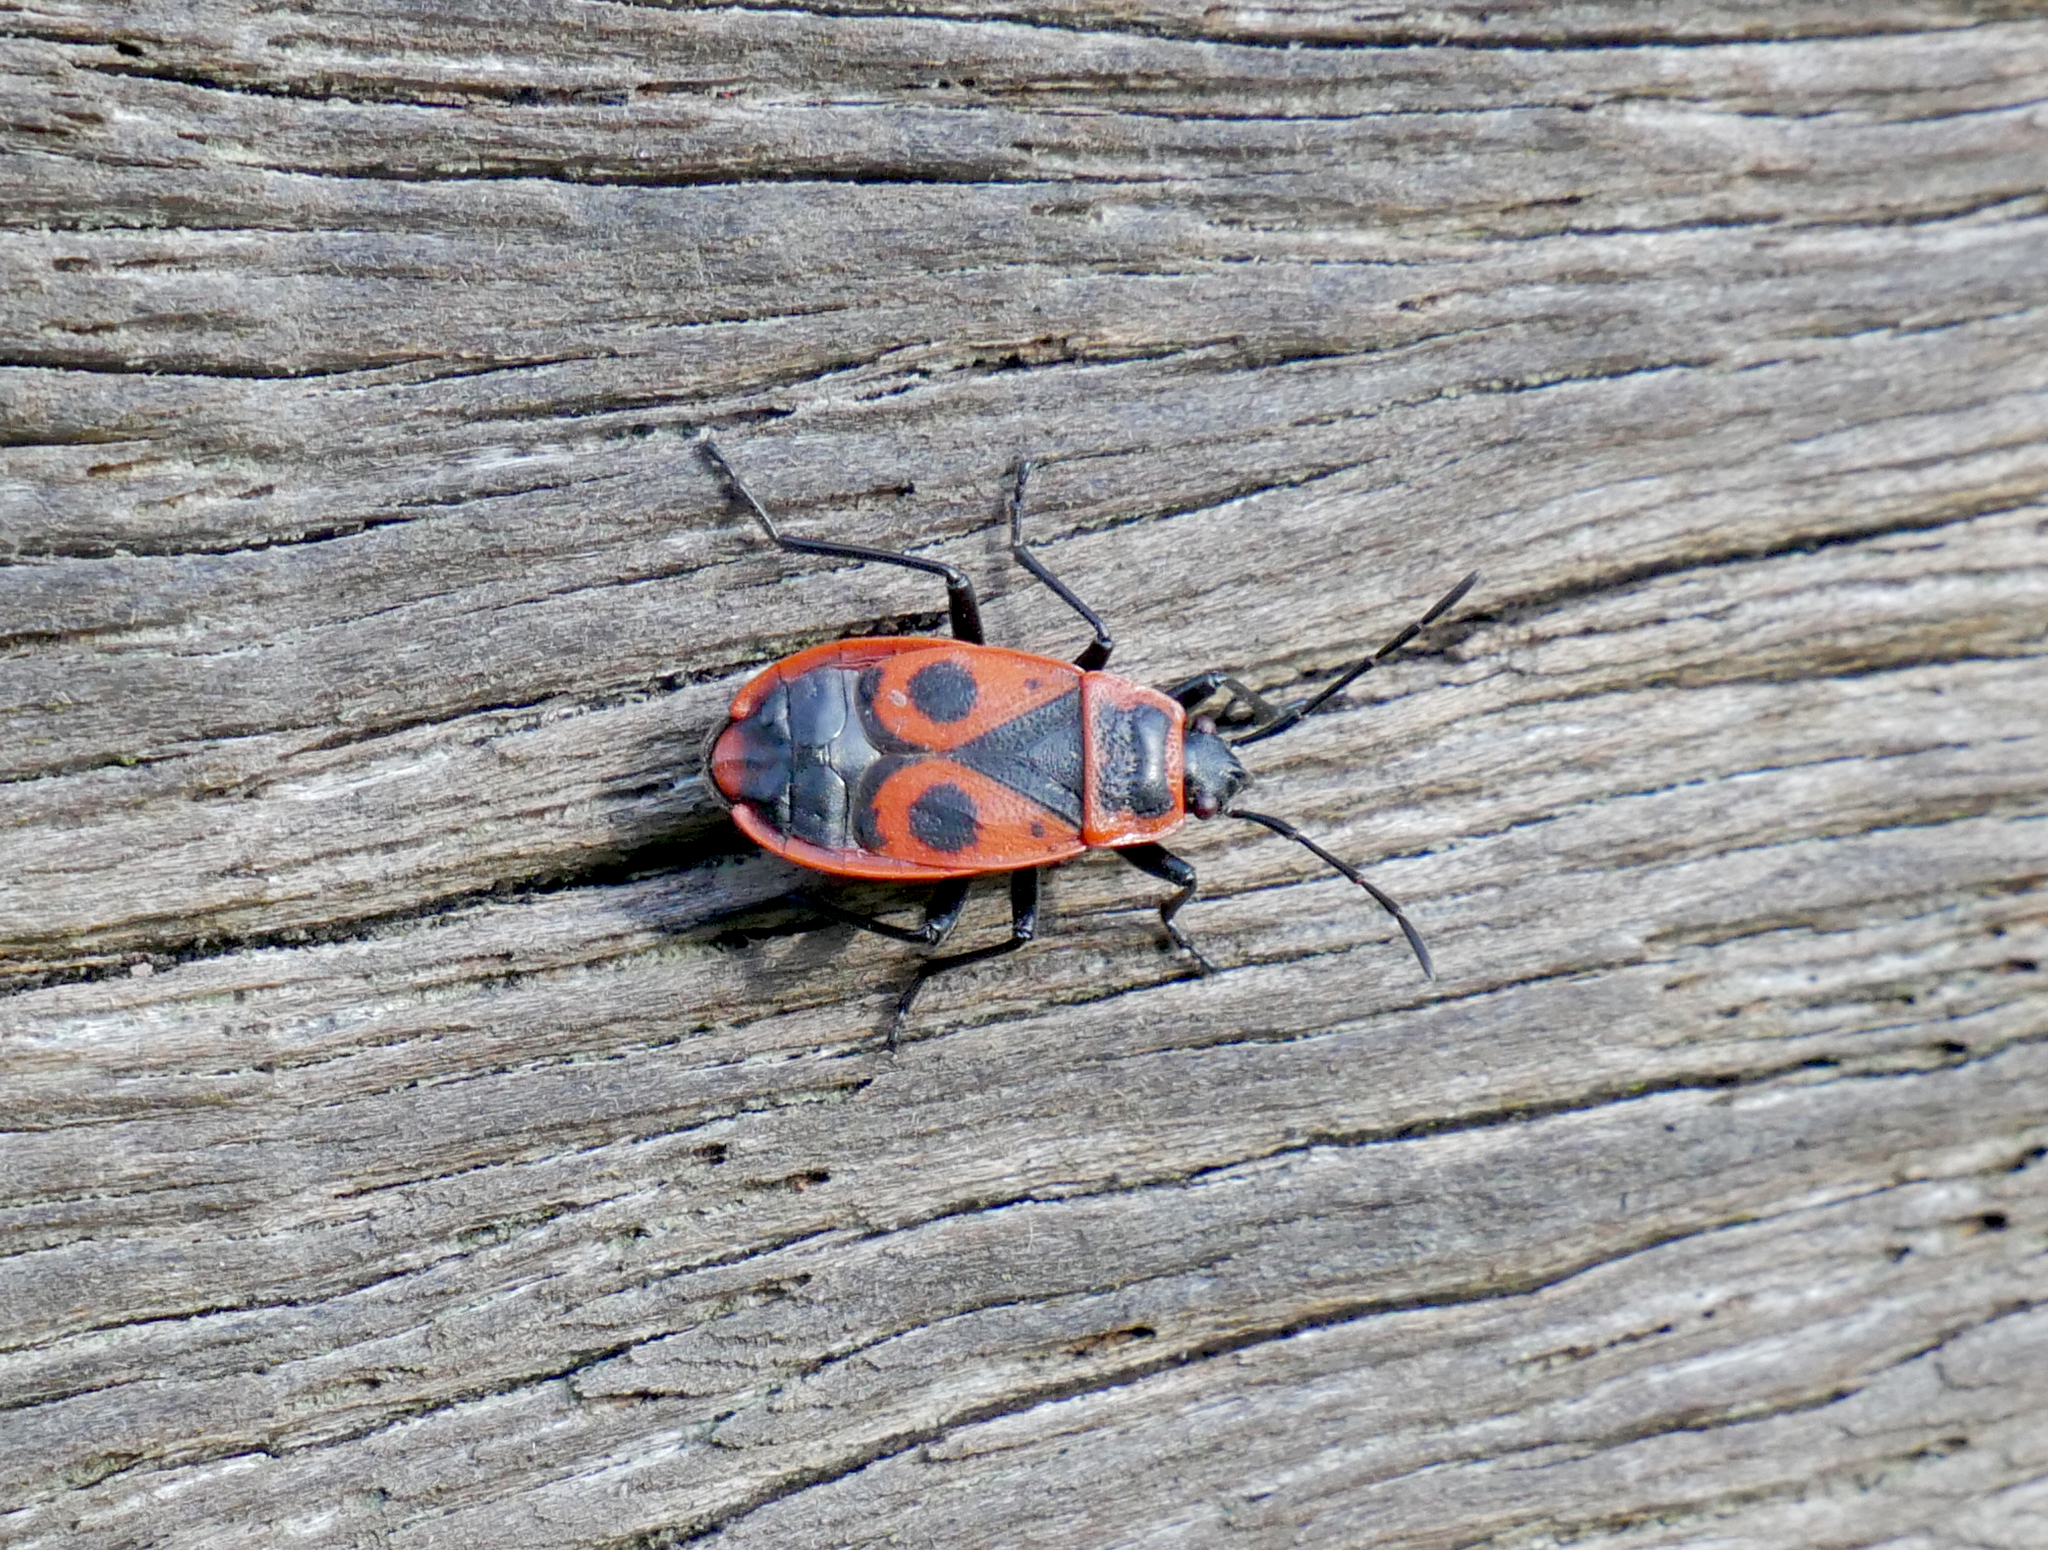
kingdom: Animalia
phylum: Arthropoda
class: Insecta
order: Hemiptera
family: Pyrrhocoridae
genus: Pyrrhocoris
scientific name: Pyrrhocoris apterus
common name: Firebug
